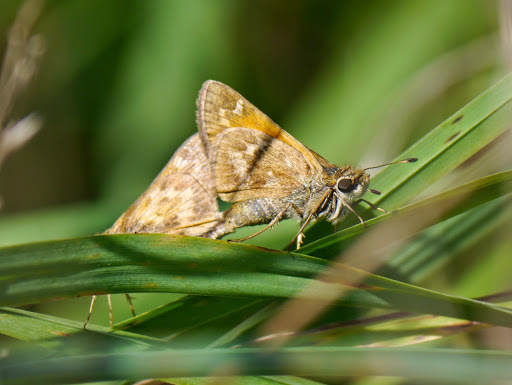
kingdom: Animalia
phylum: Arthropoda
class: Insecta
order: Lepidoptera
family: Hesperiidae
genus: Atalopedes
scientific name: Atalopedes
